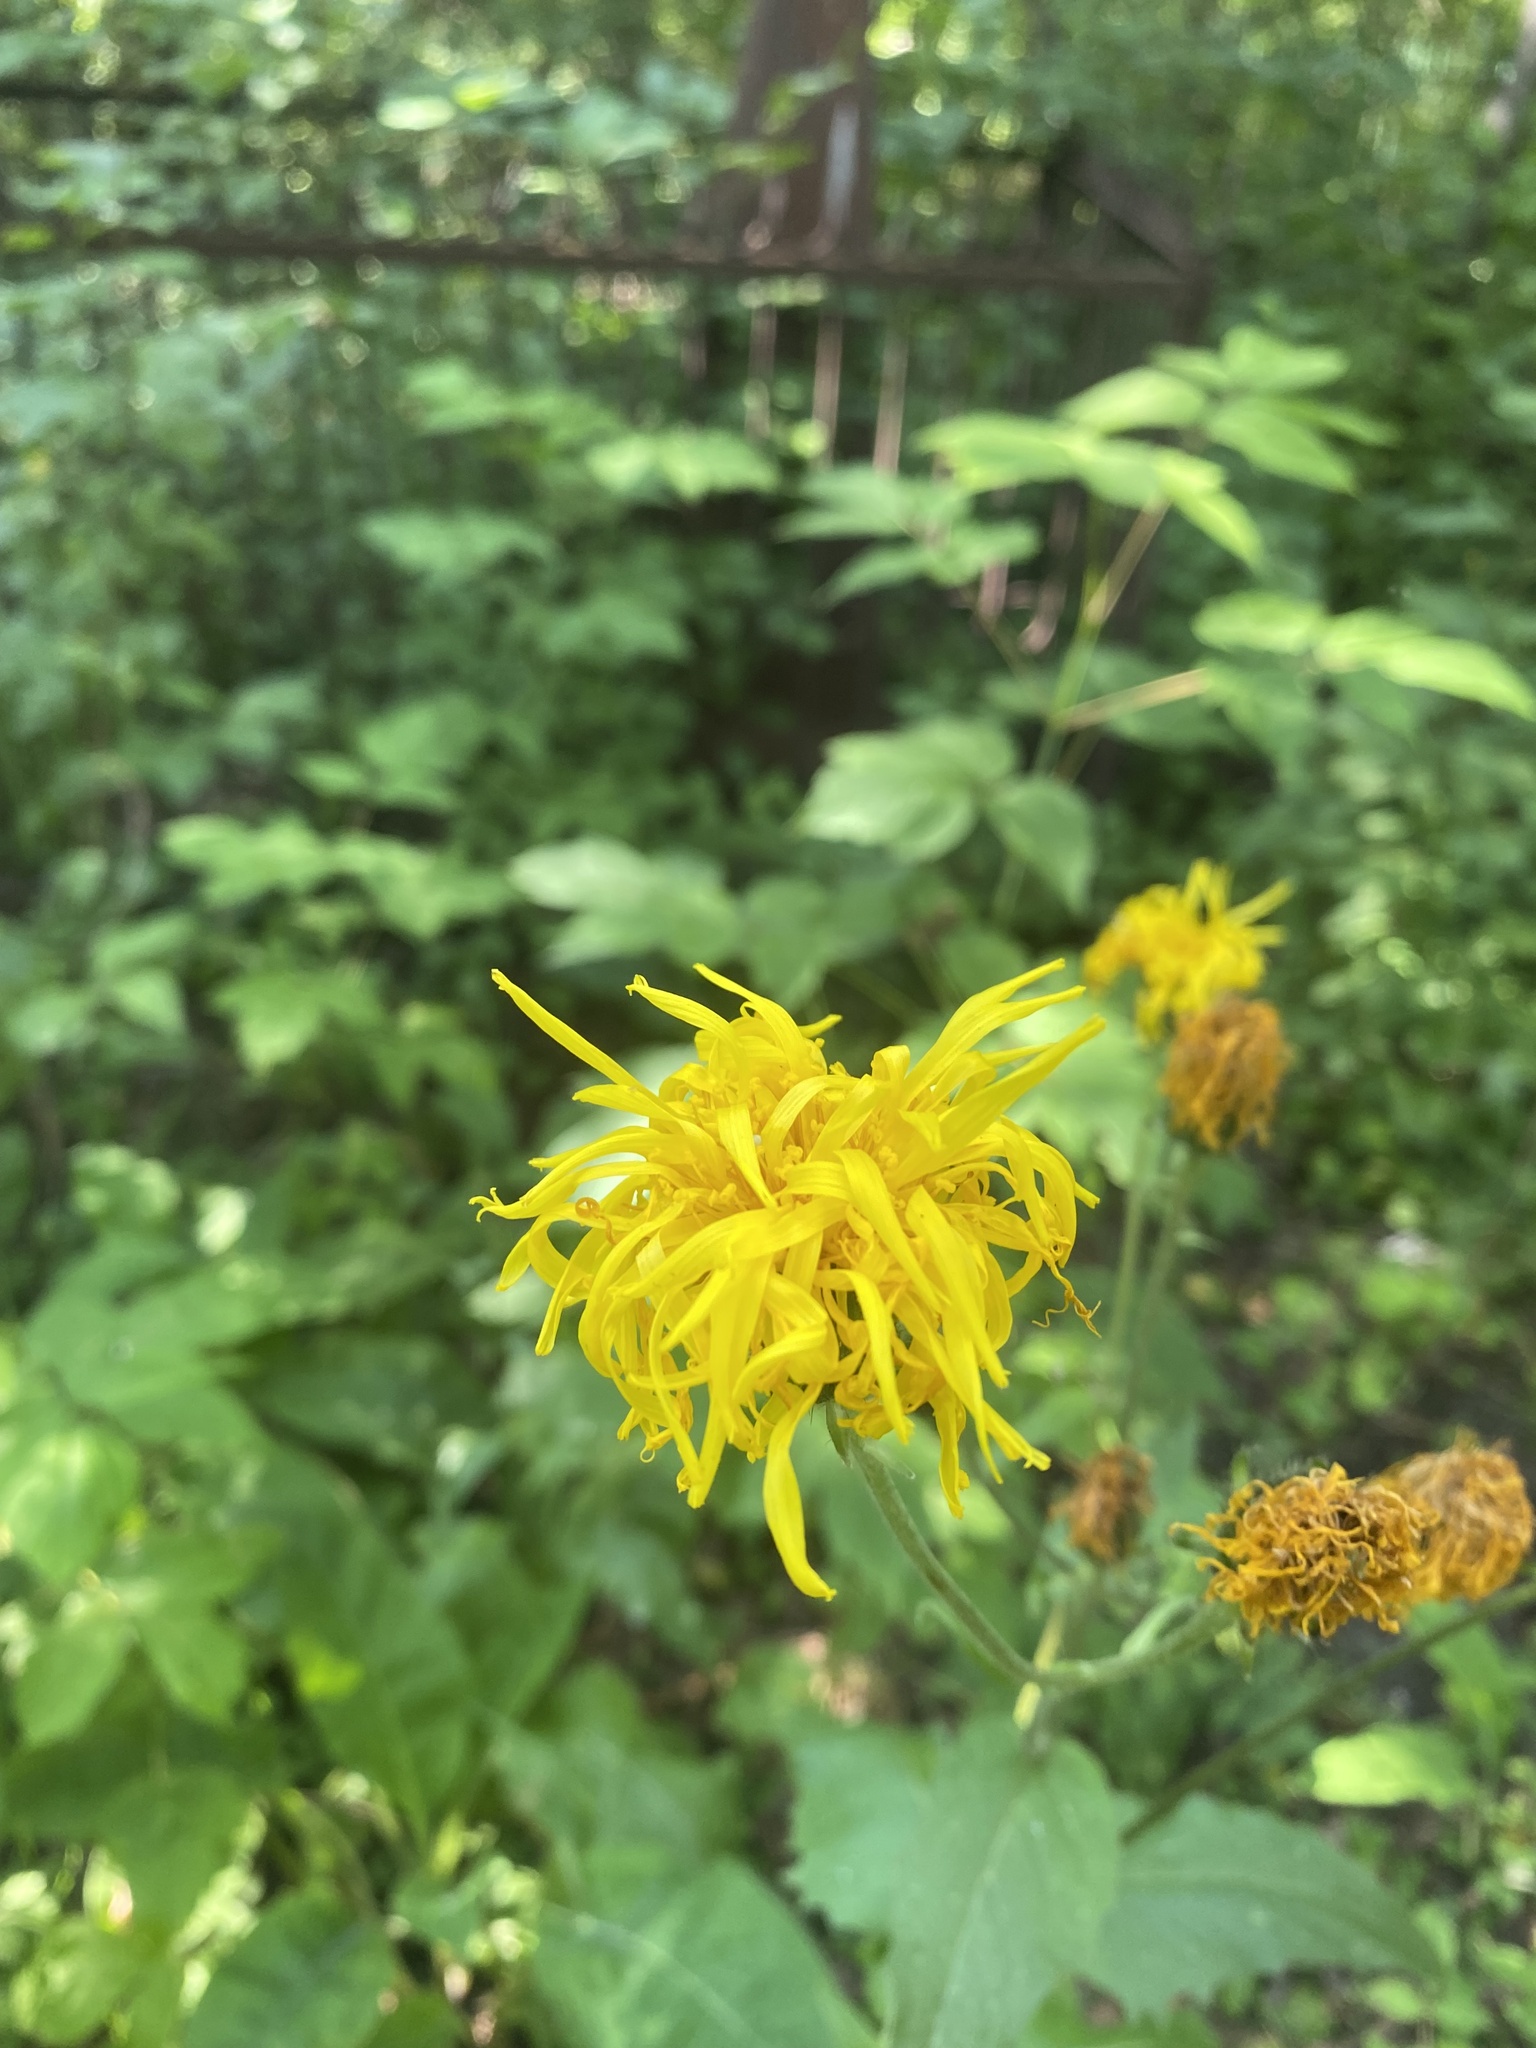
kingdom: Plantae
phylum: Tracheophyta
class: Magnoliopsida
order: Asterales
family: Asteraceae
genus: Crepis
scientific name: Crepis sibirica
